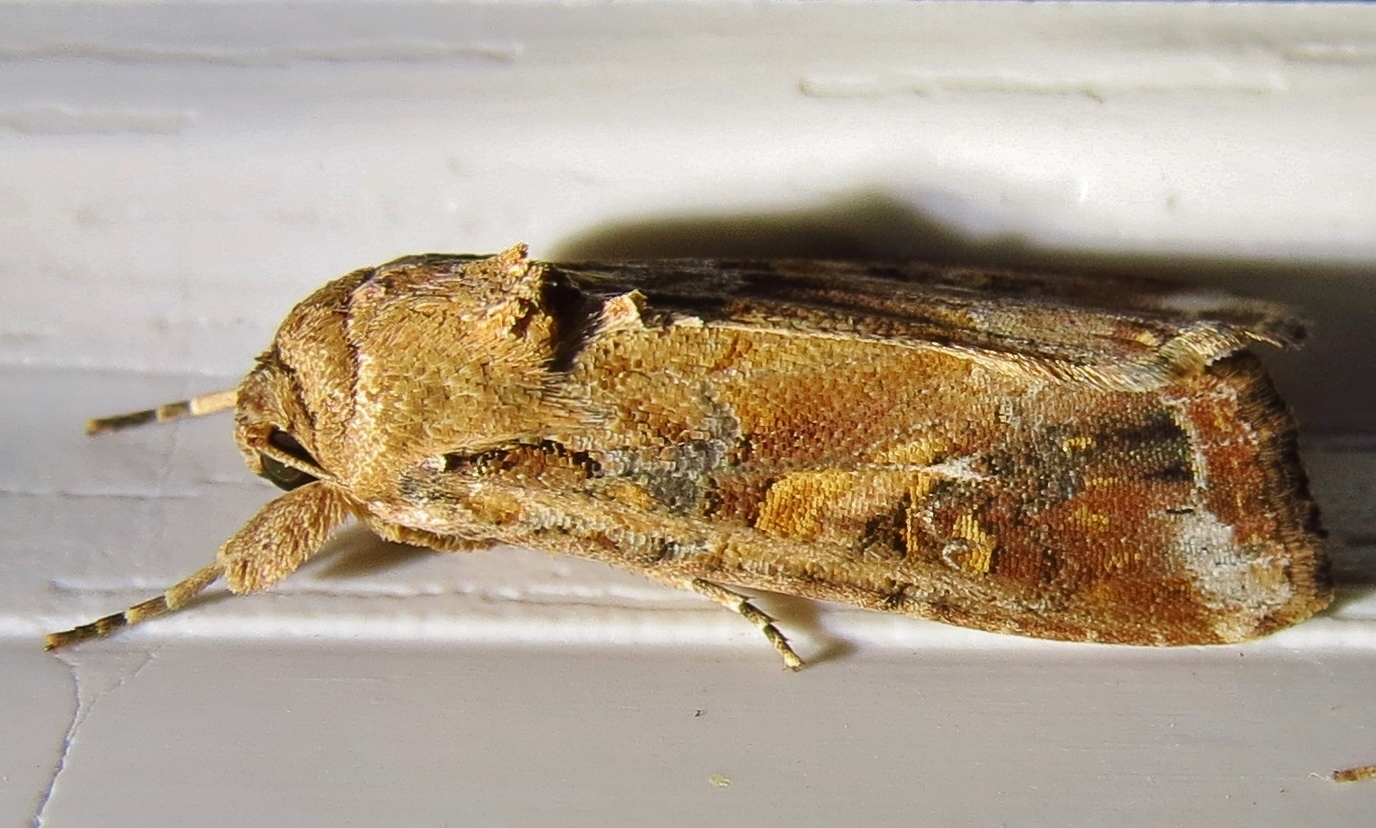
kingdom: Animalia
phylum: Arthropoda
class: Insecta
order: Lepidoptera
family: Noctuidae
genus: Spodoptera
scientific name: Spodoptera frugiperda
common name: Fall armyworm
